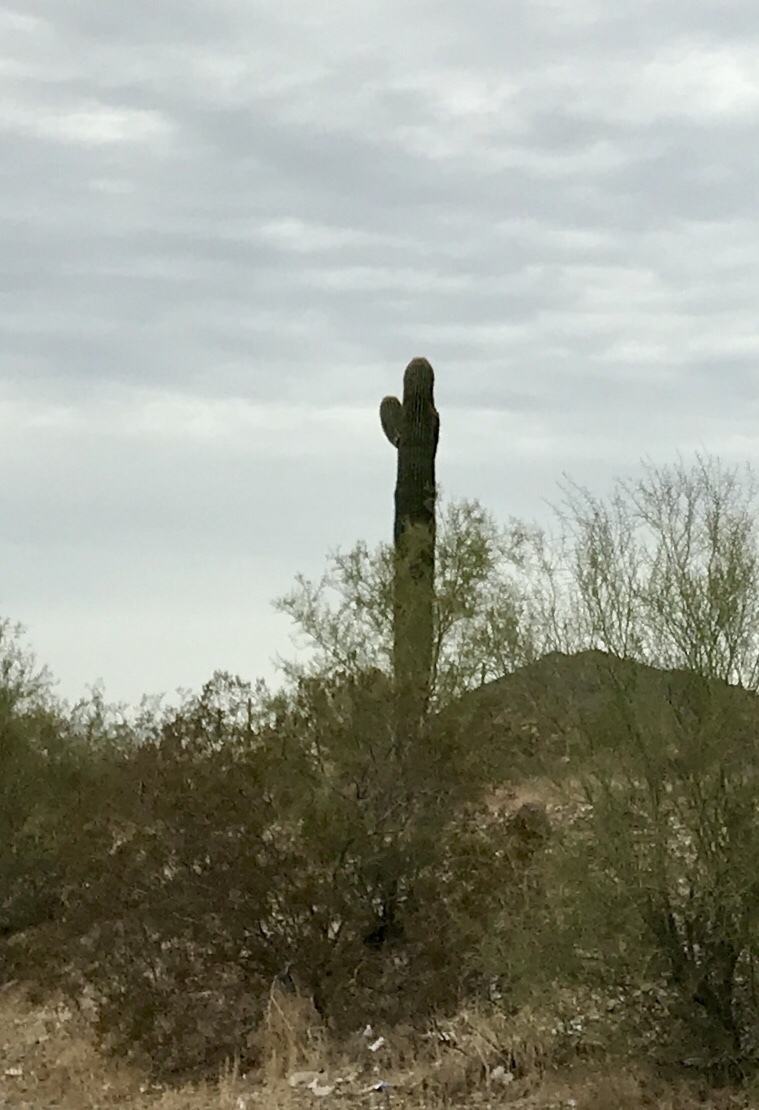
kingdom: Plantae
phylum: Tracheophyta
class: Magnoliopsida
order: Caryophyllales
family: Cactaceae
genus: Carnegiea
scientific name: Carnegiea gigantea
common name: Saguaro
